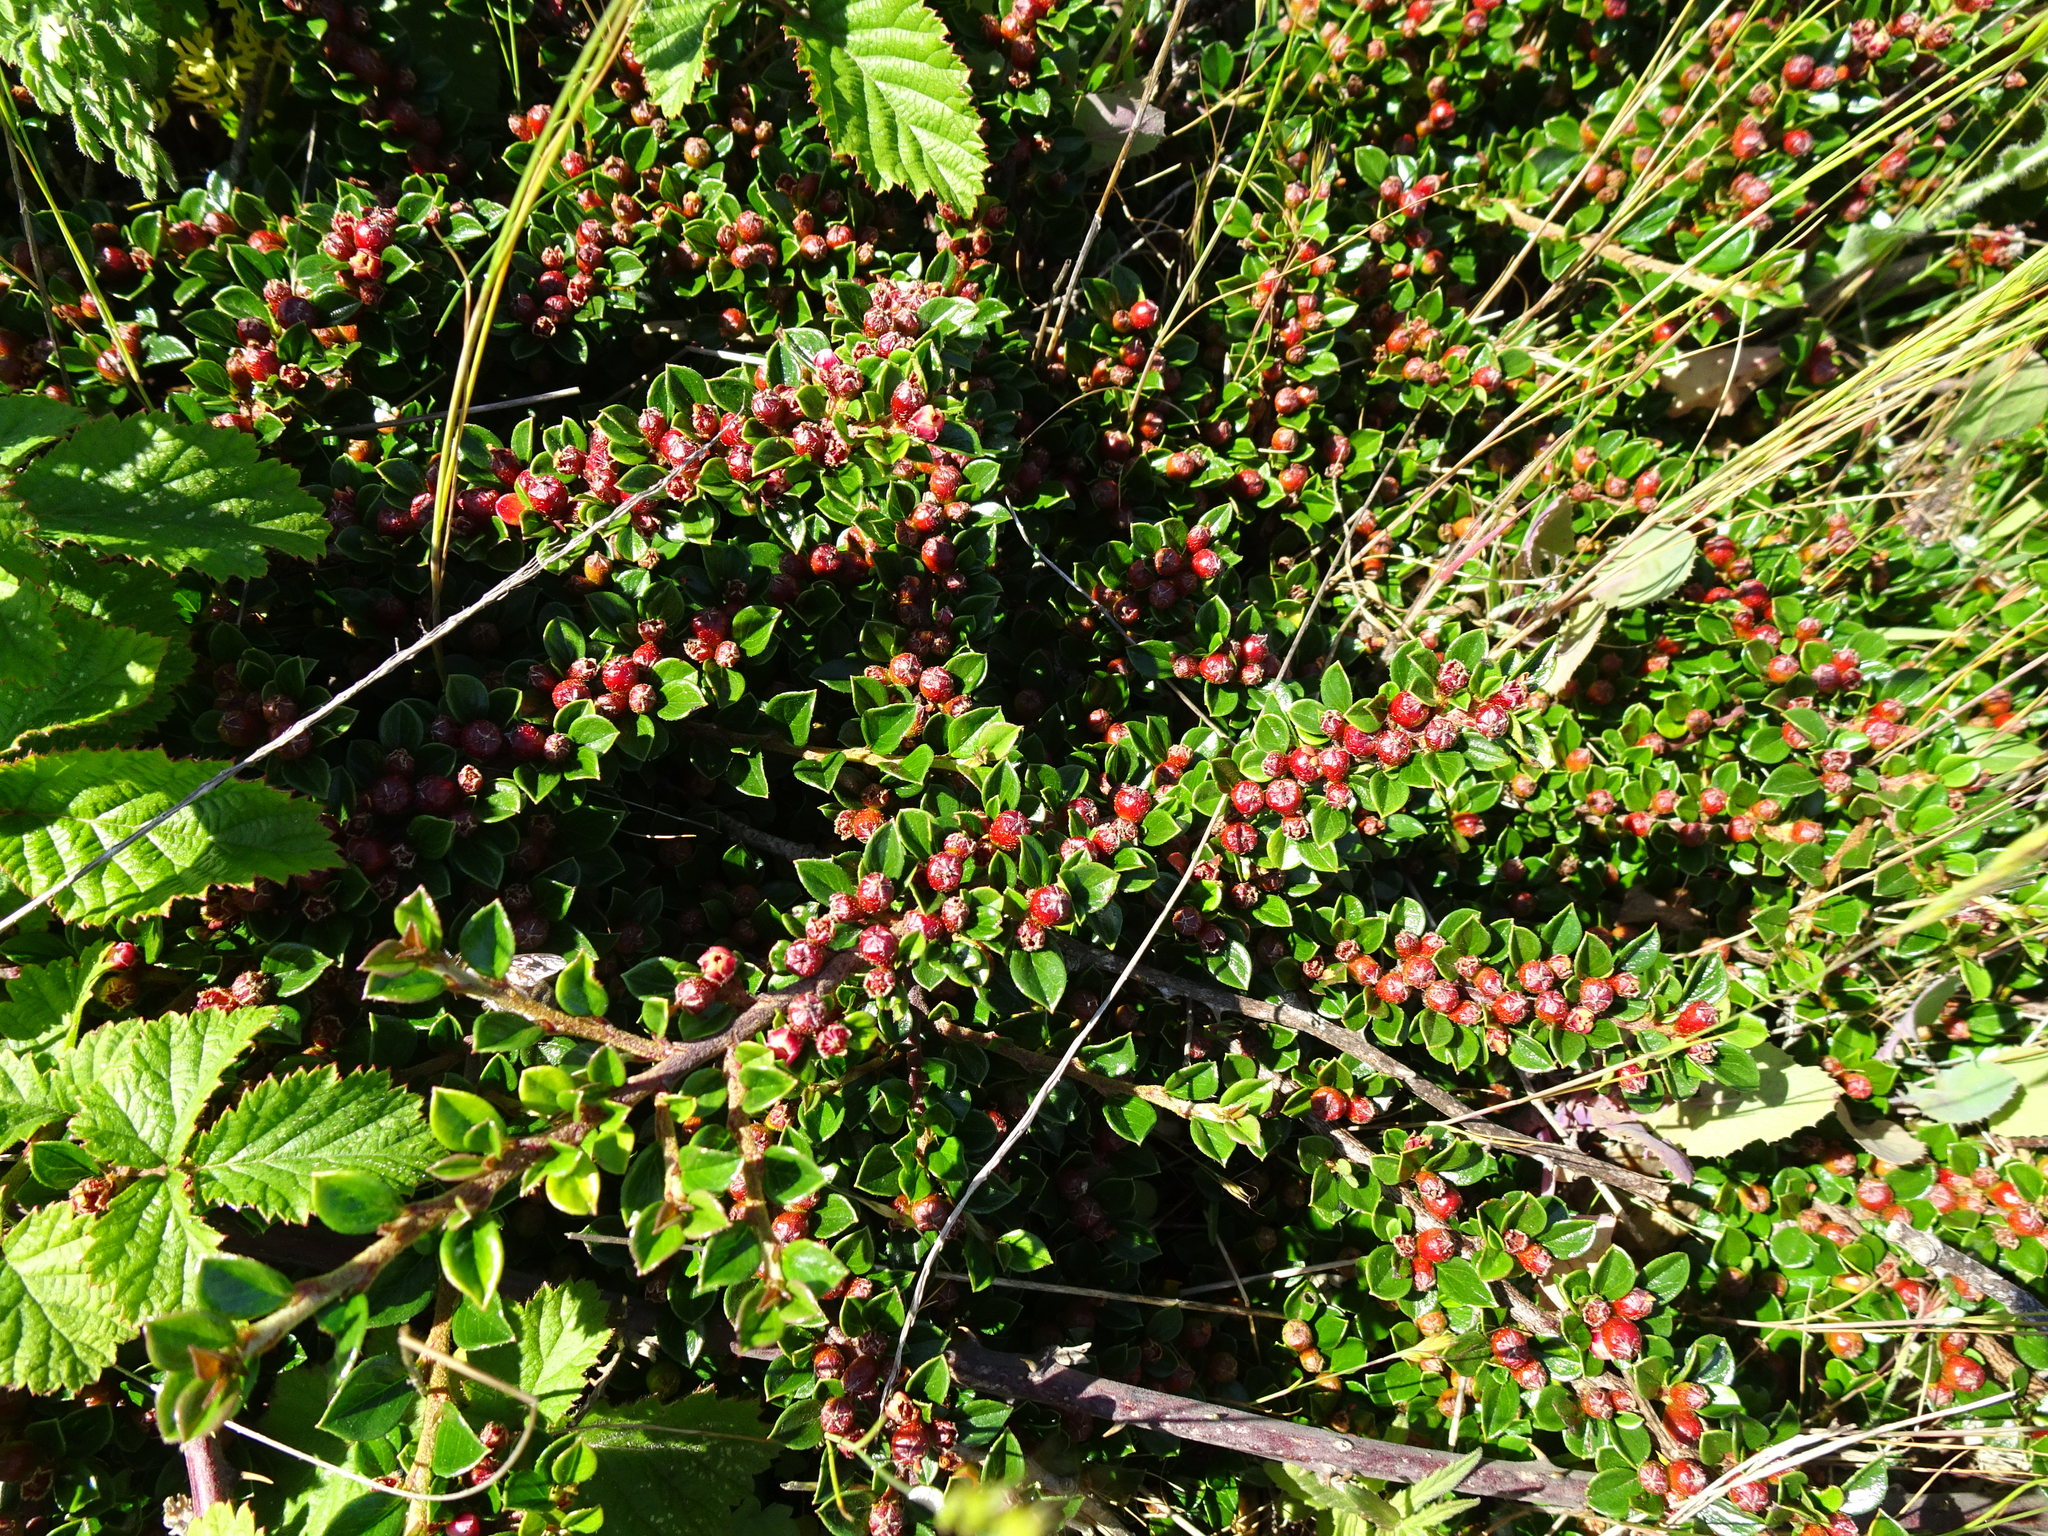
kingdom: Plantae
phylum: Tracheophyta
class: Magnoliopsida
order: Rosales
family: Rosaceae
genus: Cotoneaster
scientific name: Cotoneaster horizontalis
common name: Wall cotoneaster
